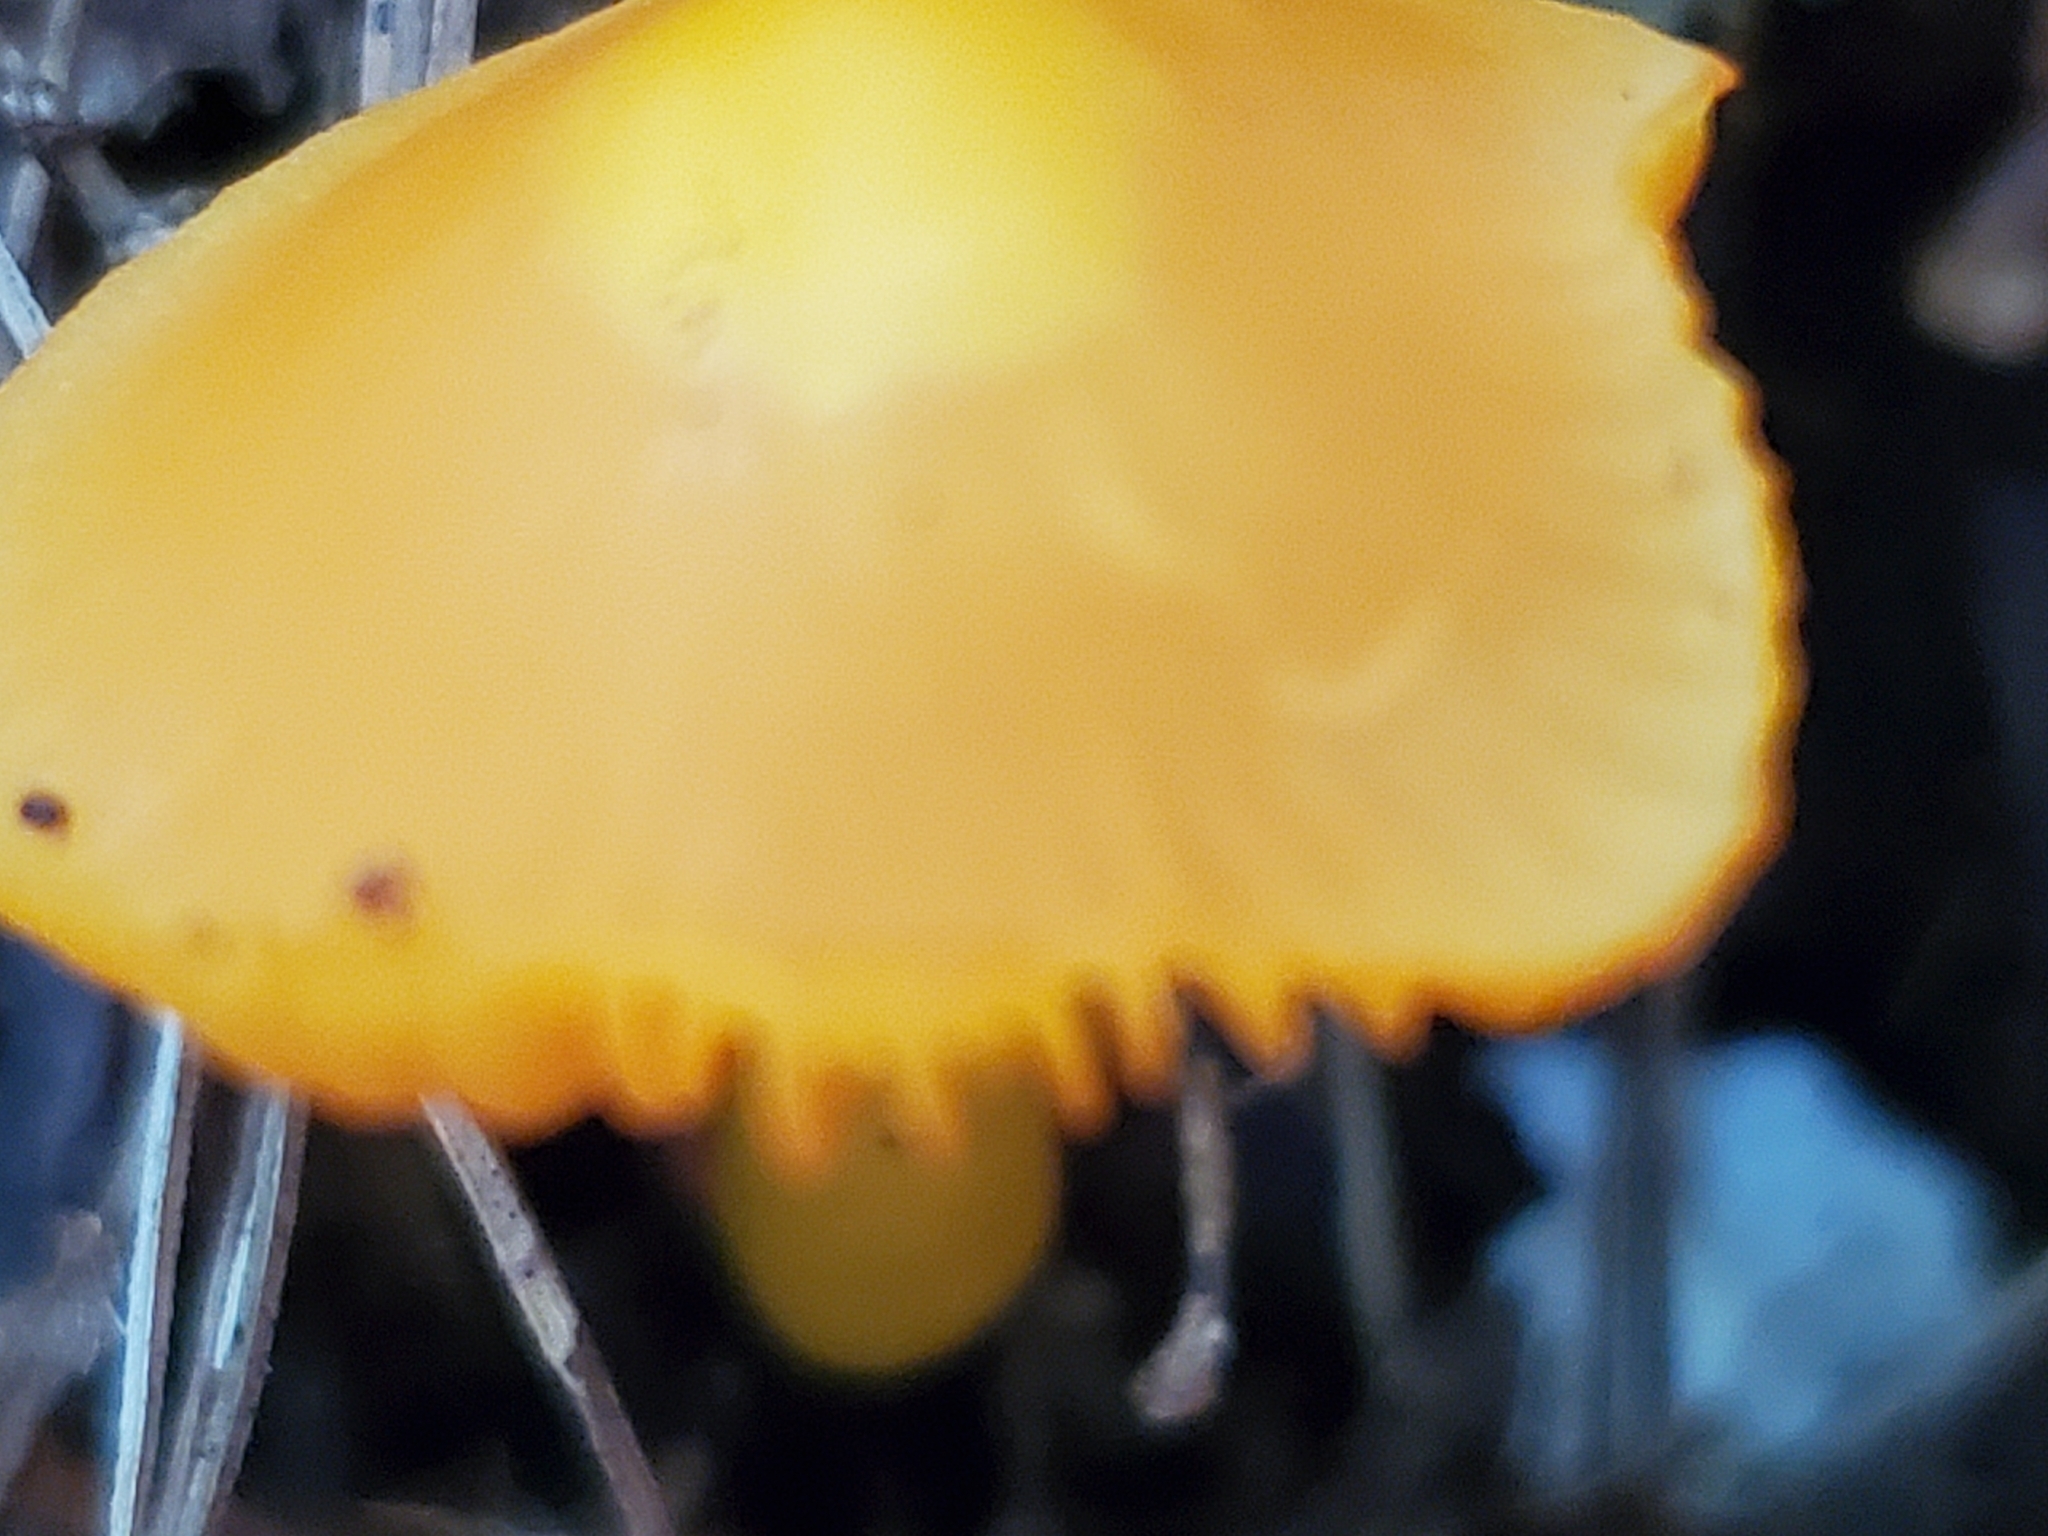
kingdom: Fungi
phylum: Basidiomycota
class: Agaricomycetes
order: Agaricales
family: Hygrophoraceae
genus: Humidicutis
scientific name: Humidicutis marginata
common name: Orange gilled waxcap
